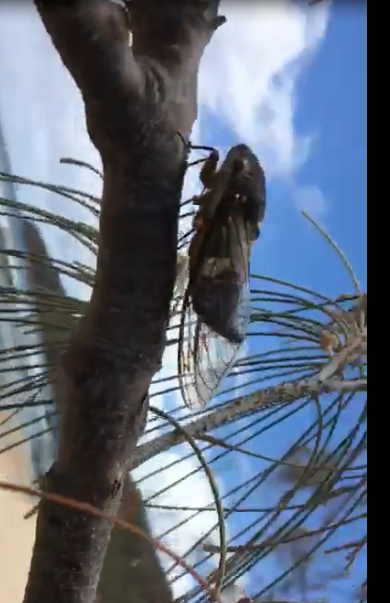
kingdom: Animalia
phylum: Arthropoda
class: Insecta
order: Hemiptera
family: Cicadidae
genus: Psaltoda
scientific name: Psaltoda plaga
